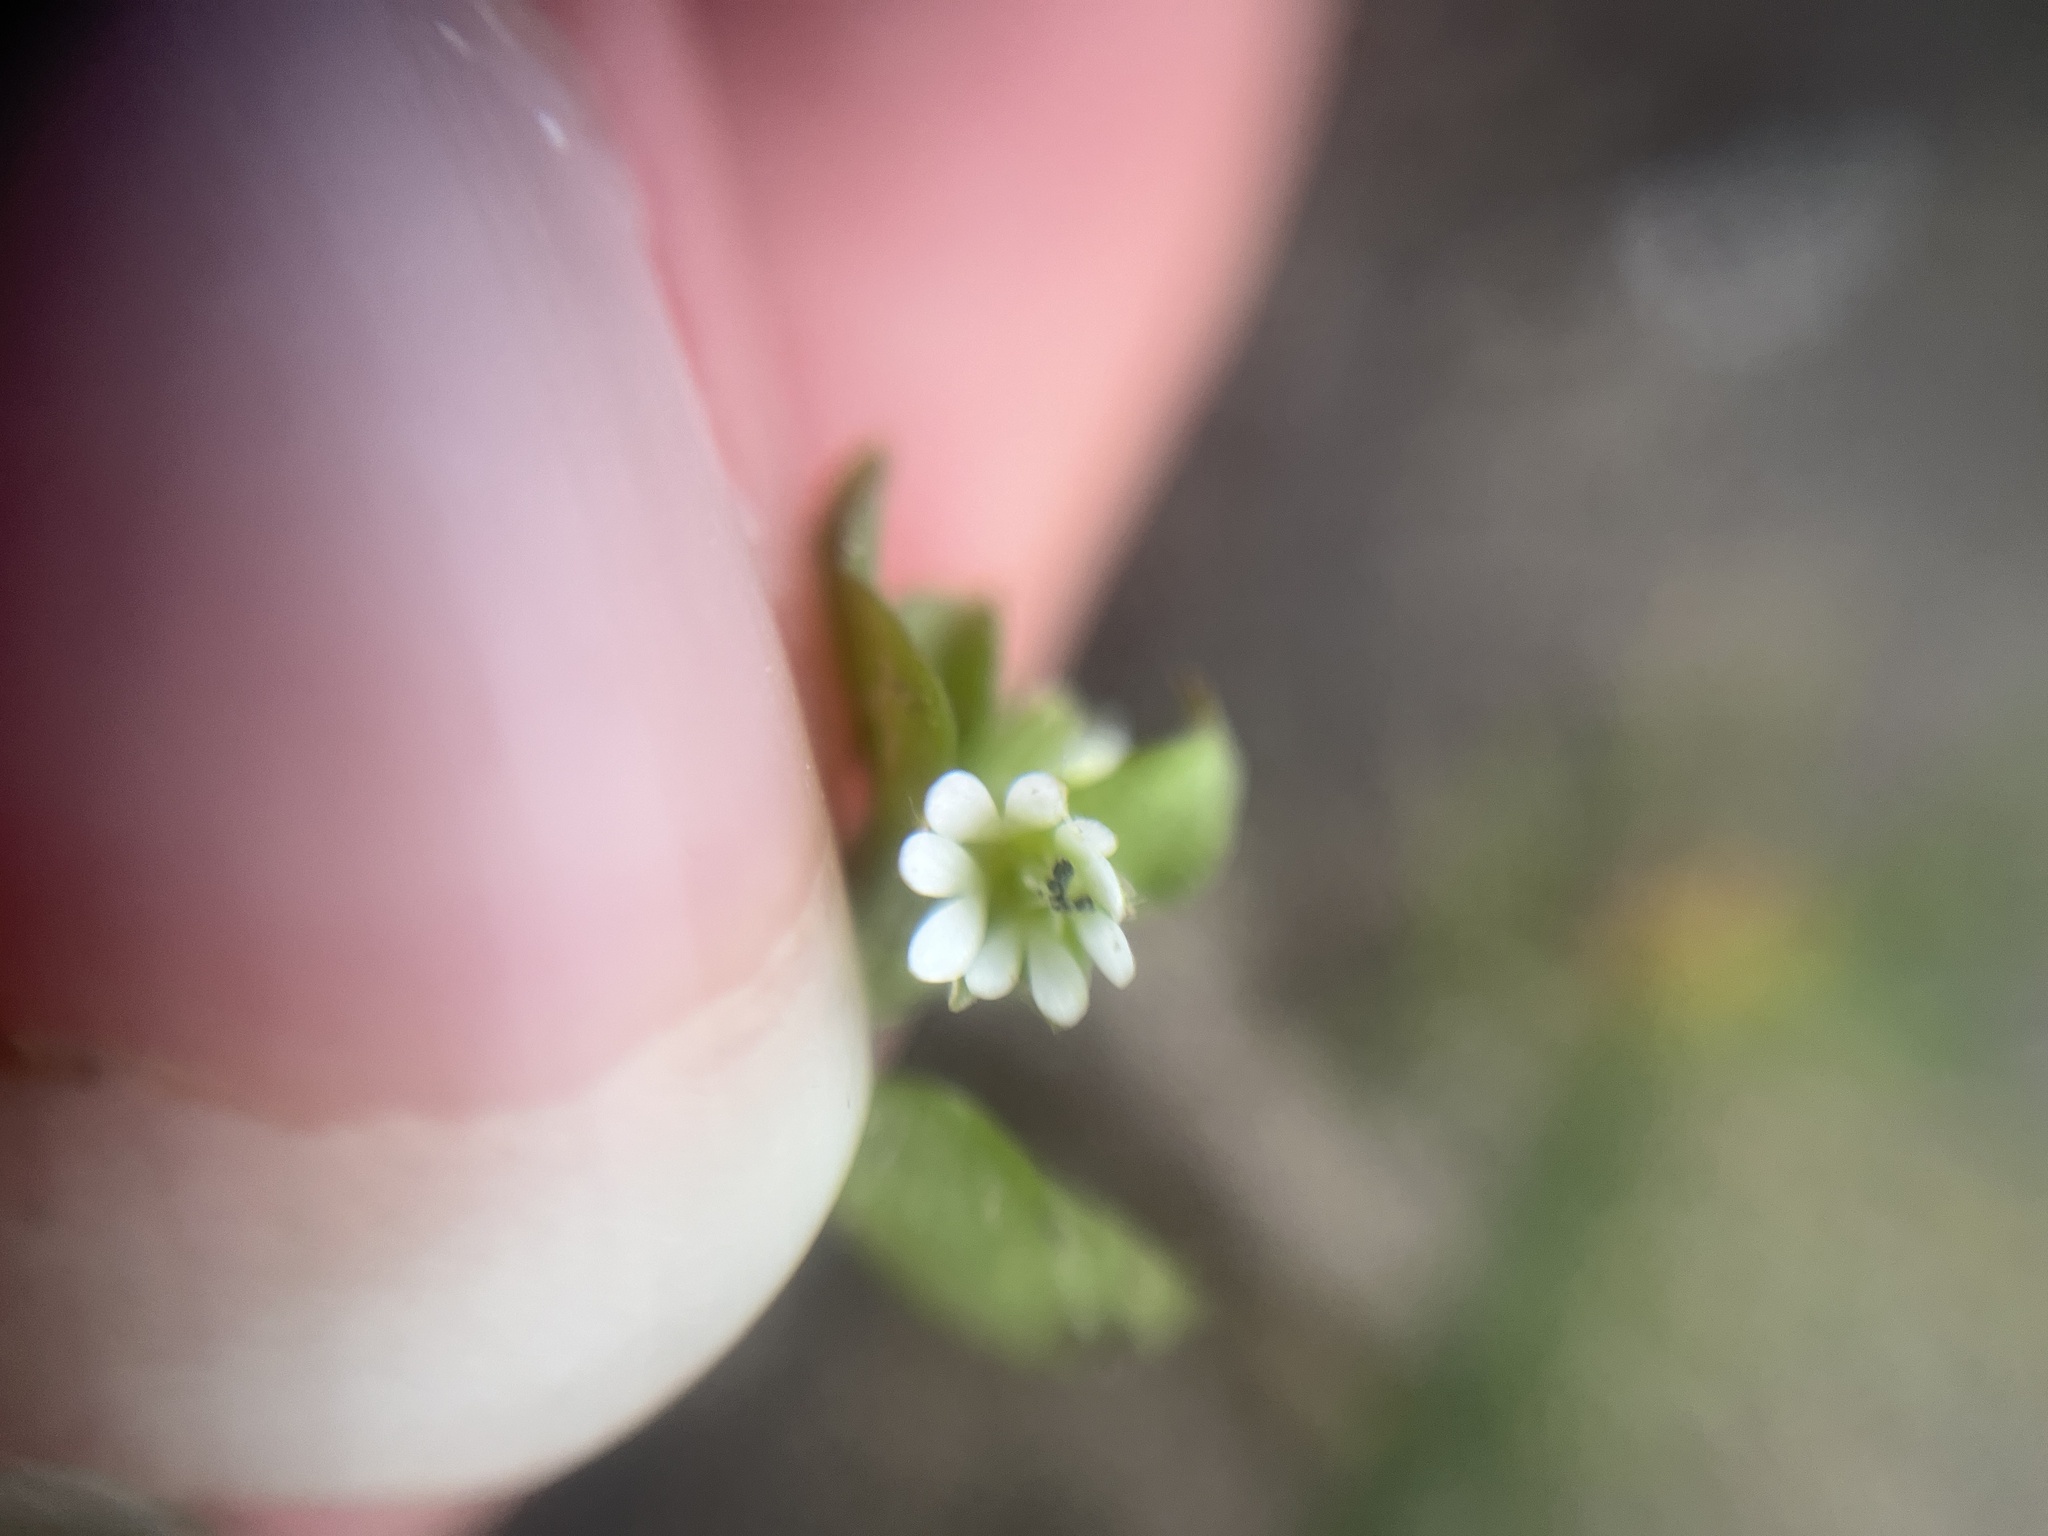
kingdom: Plantae
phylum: Tracheophyta
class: Magnoliopsida
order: Caryophyllales
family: Caryophyllaceae
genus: Stellaria
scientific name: Stellaria media
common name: Common chickweed
